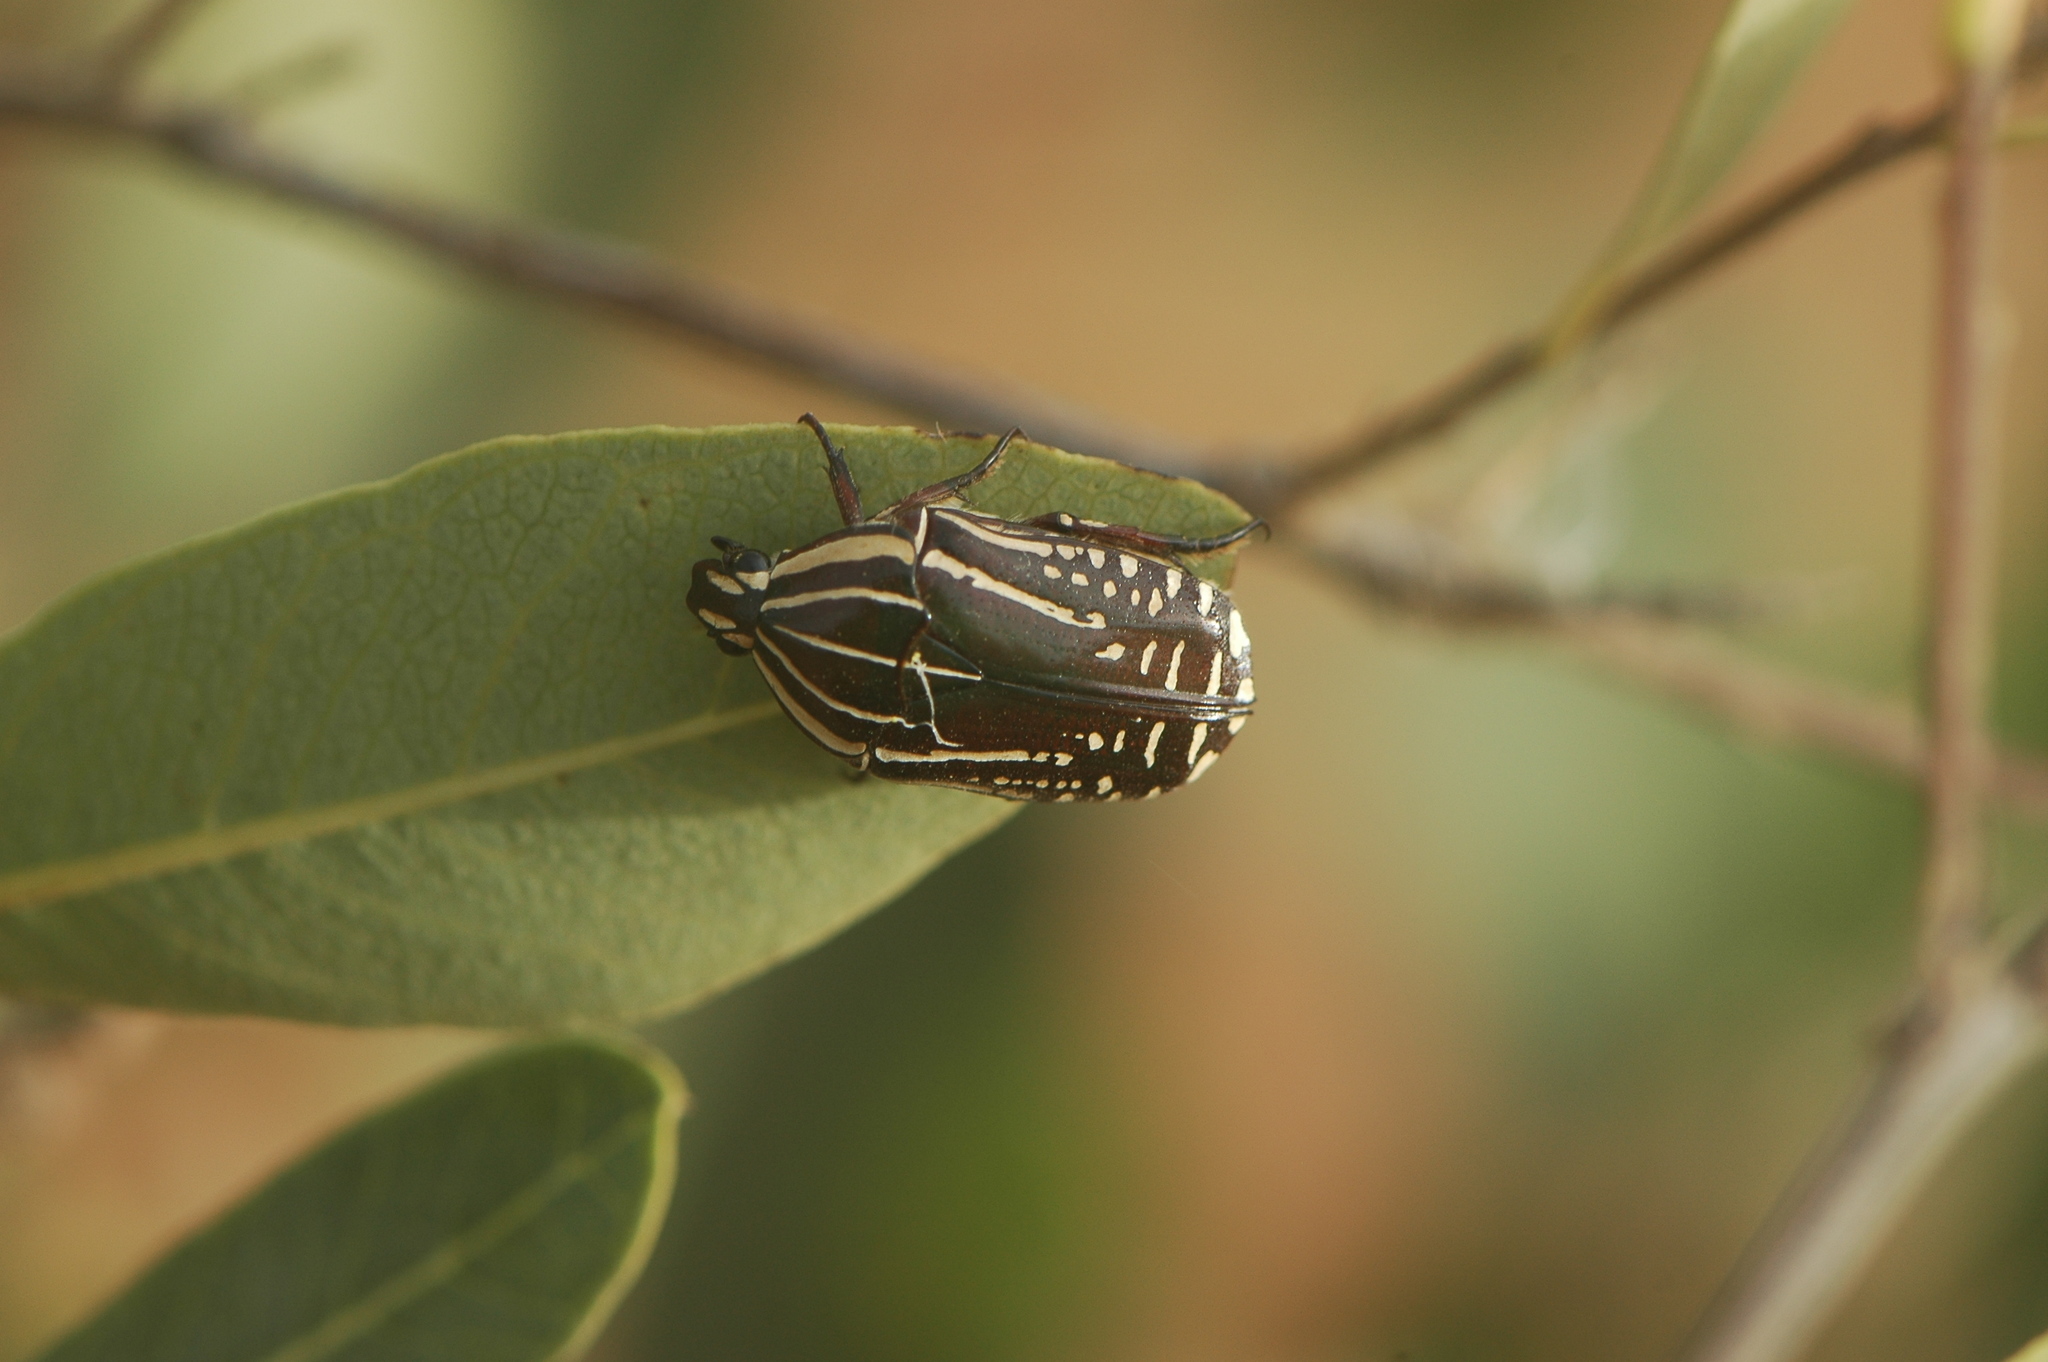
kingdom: Animalia
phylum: Arthropoda
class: Insecta
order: Coleoptera
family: Scarabaeidae
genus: Rhabdotis
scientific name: Rhabdotis sobrina
